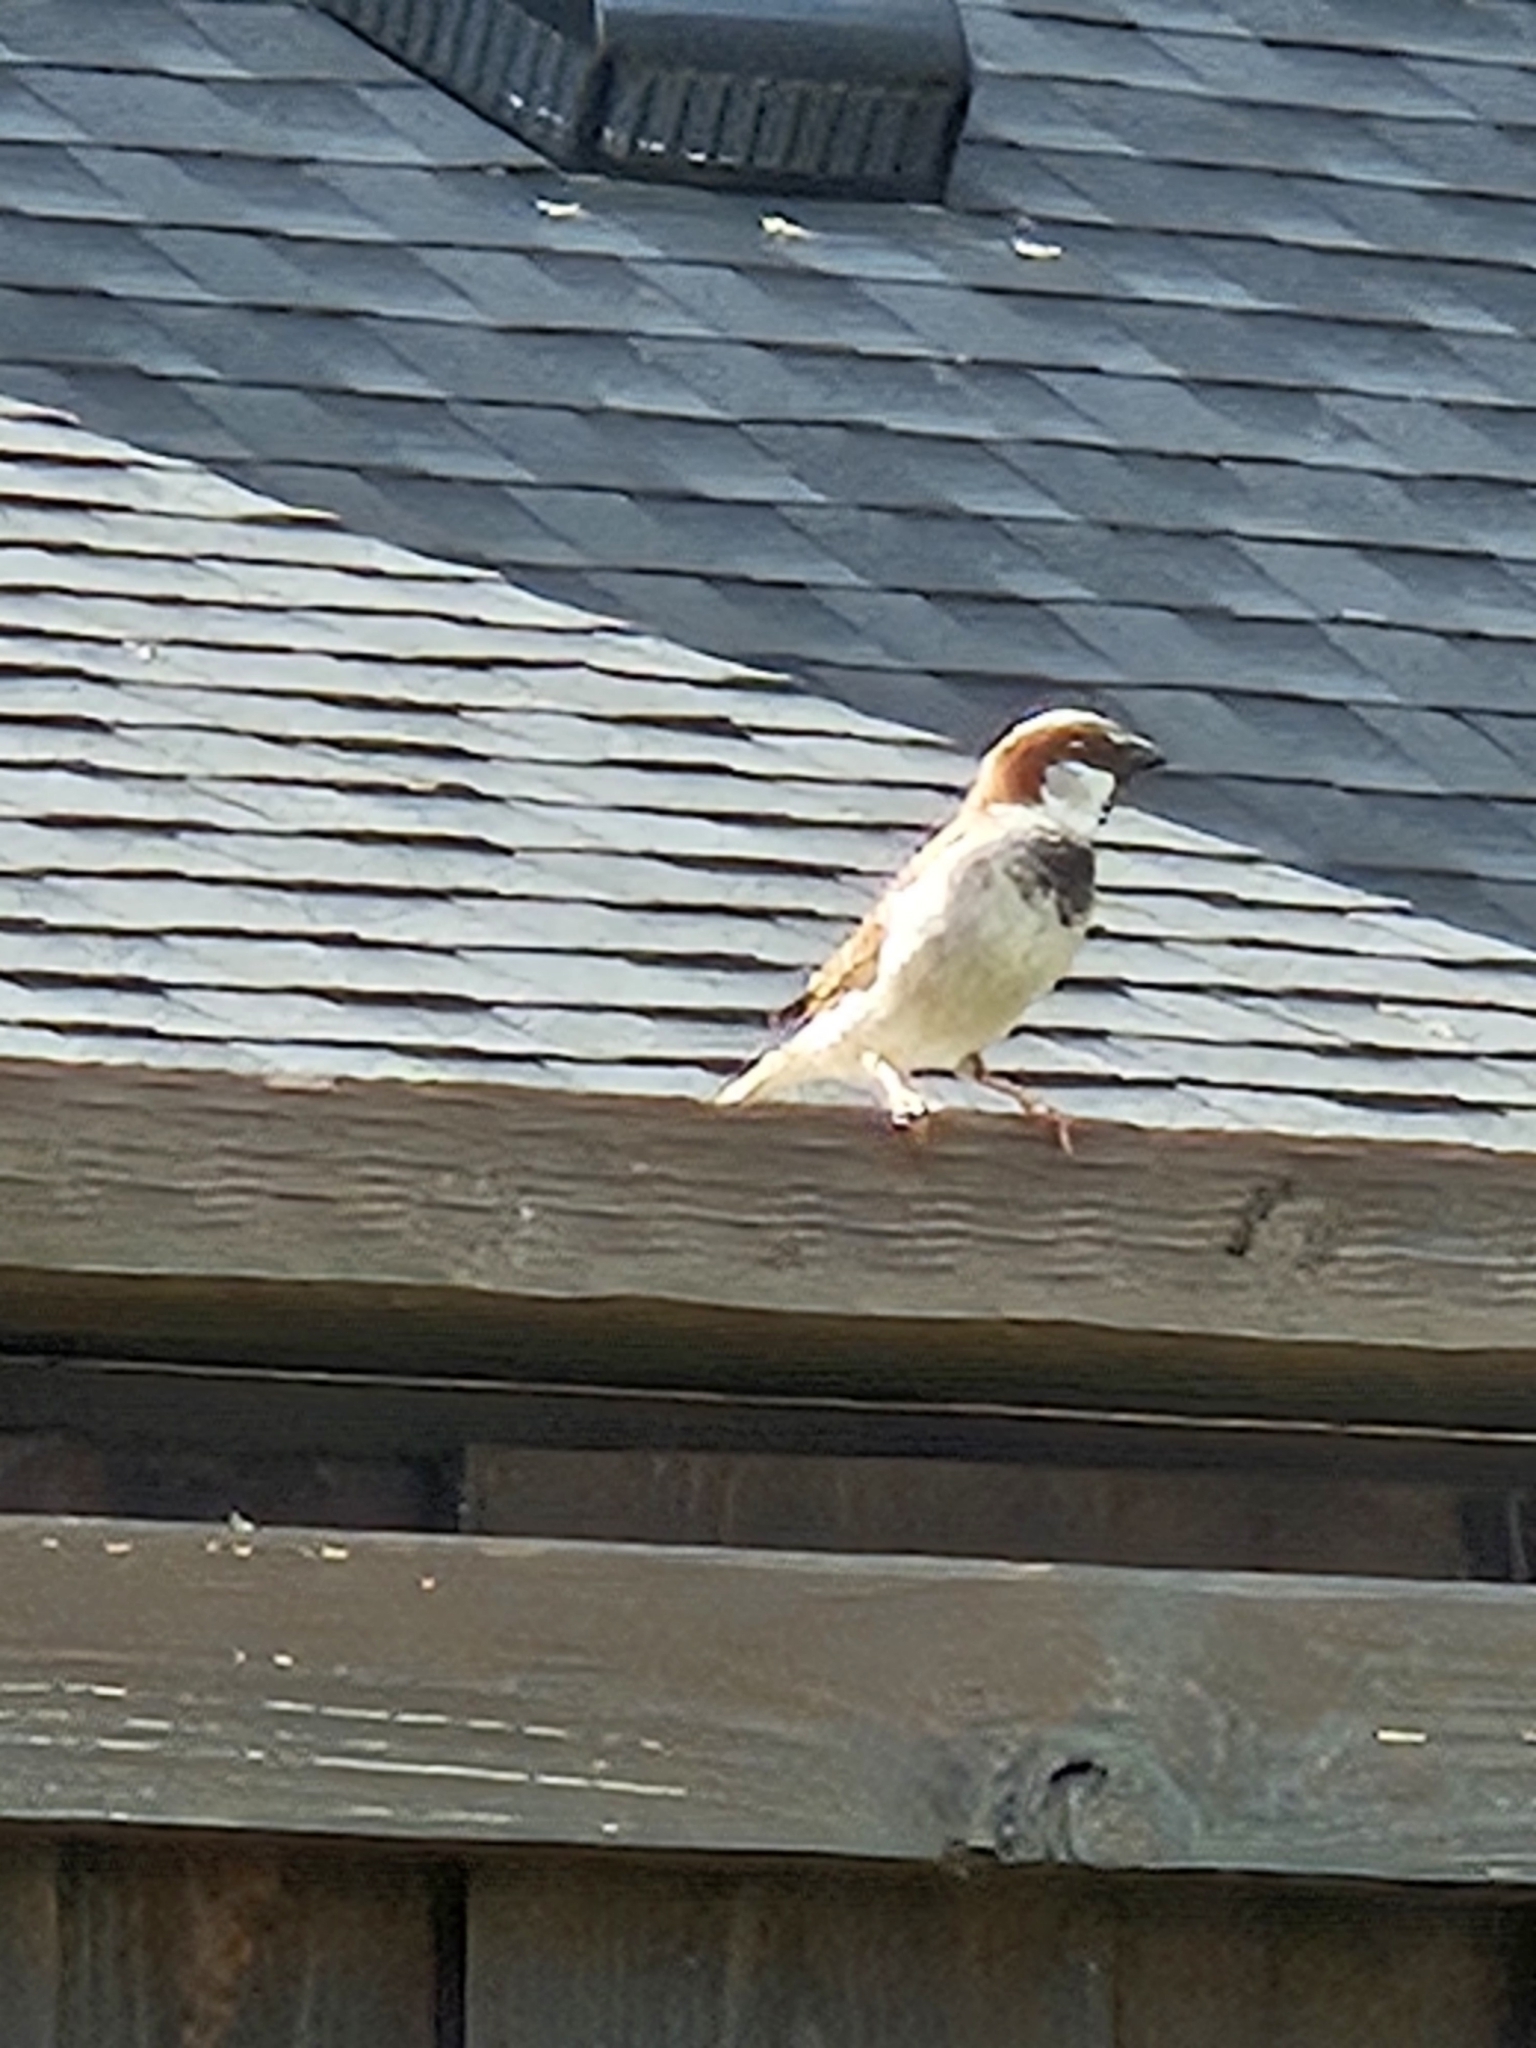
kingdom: Animalia
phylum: Chordata
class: Aves
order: Passeriformes
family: Passeridae
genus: Passer
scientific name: Passer domesticus
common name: House sparrow
